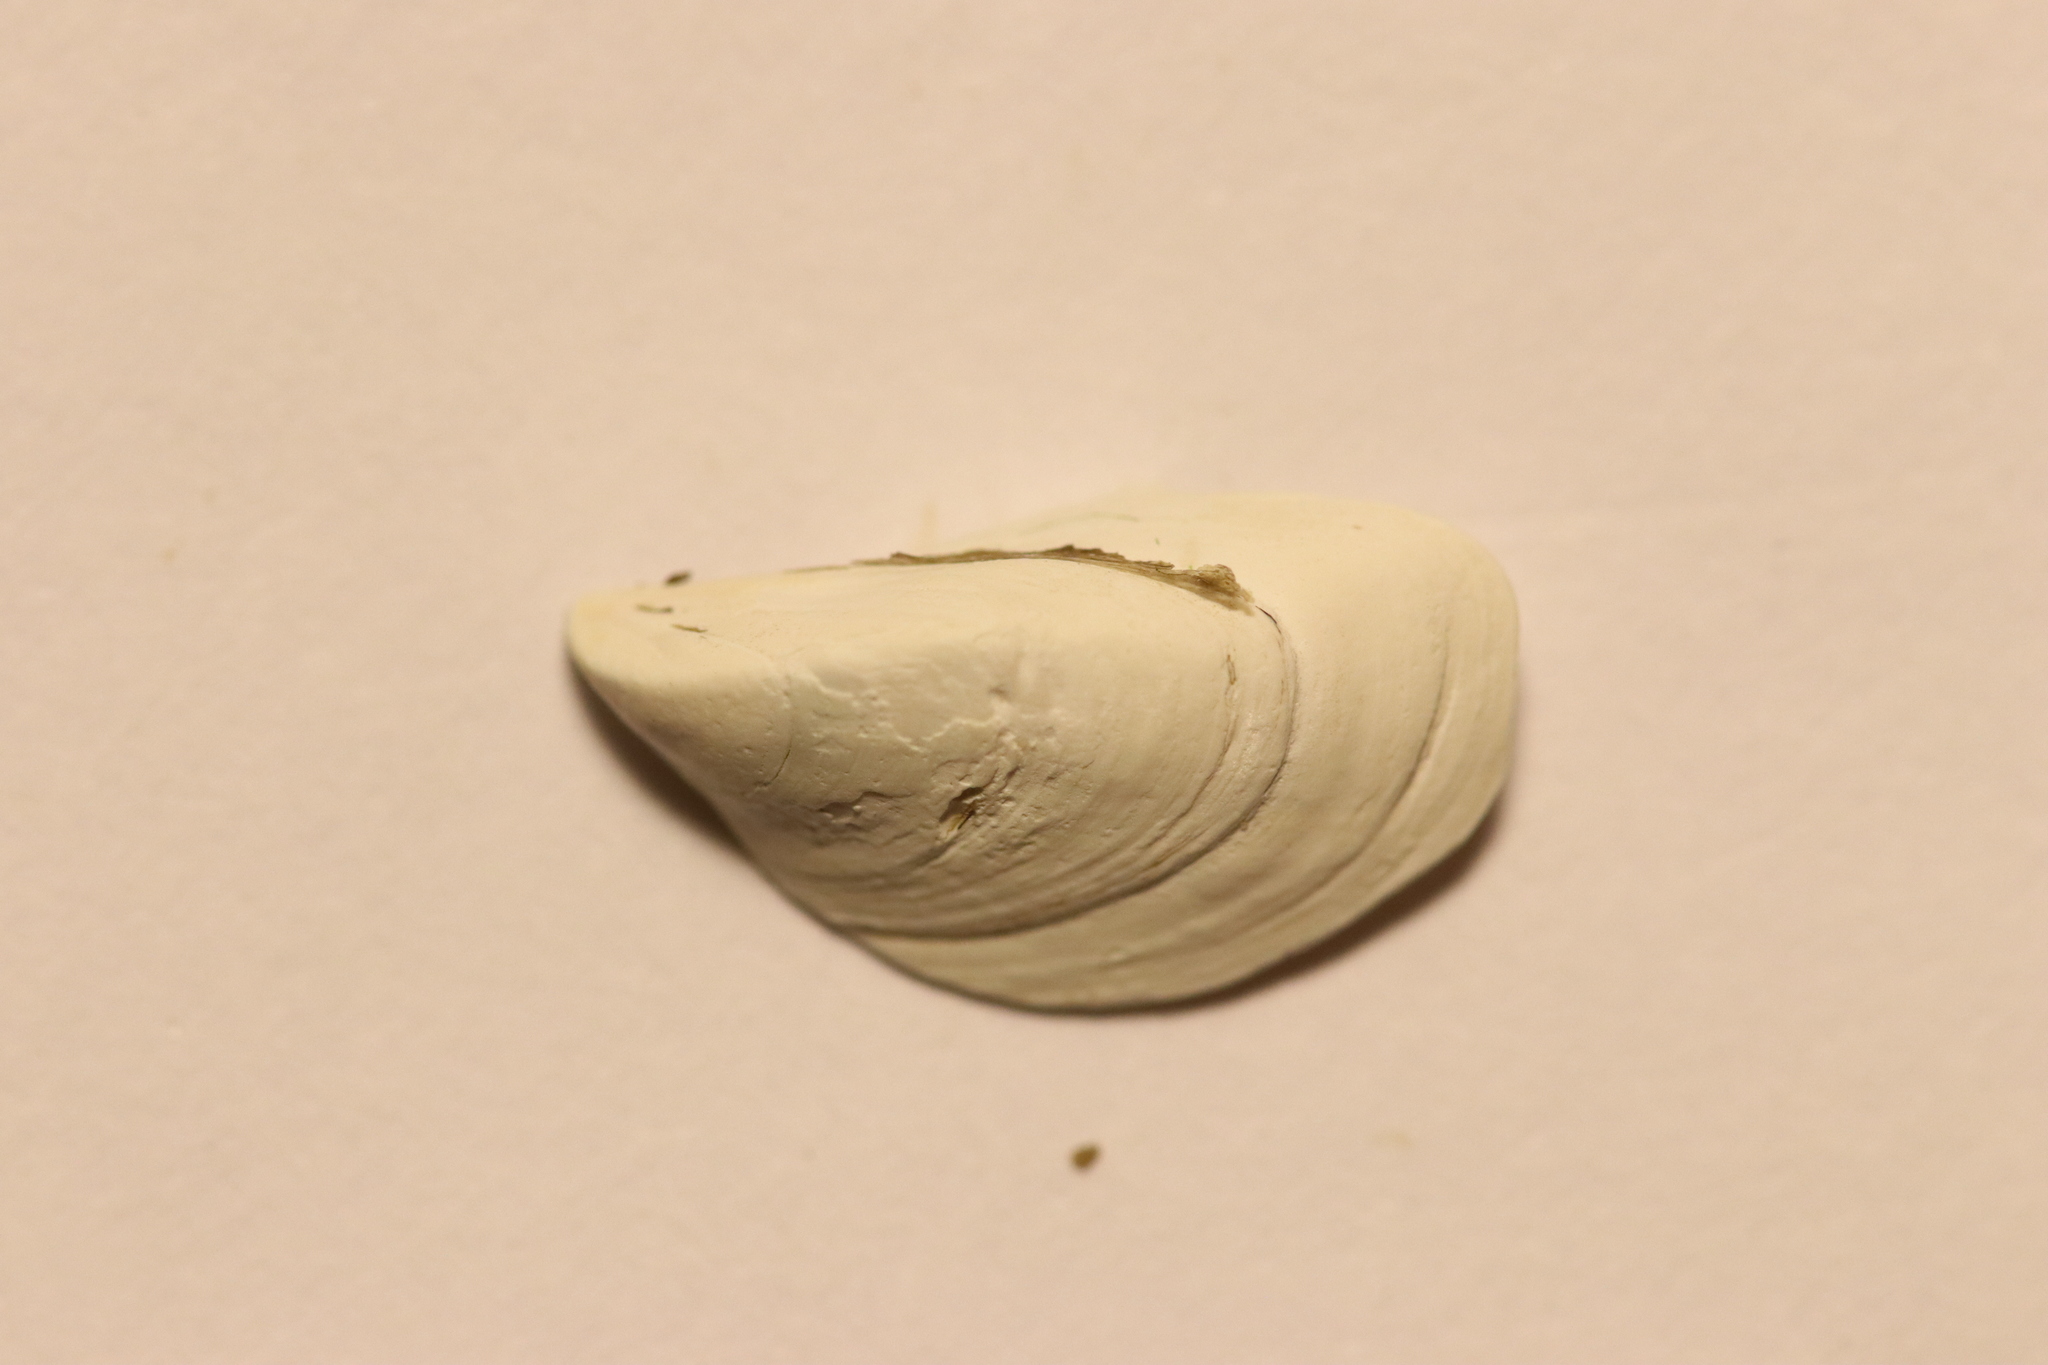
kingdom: Animalia
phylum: Mollusca
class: Bivalvia
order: Myida
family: Dreissenidae
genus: Dreissena
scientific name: Dreissena polymorpha
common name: Zebra mussel
